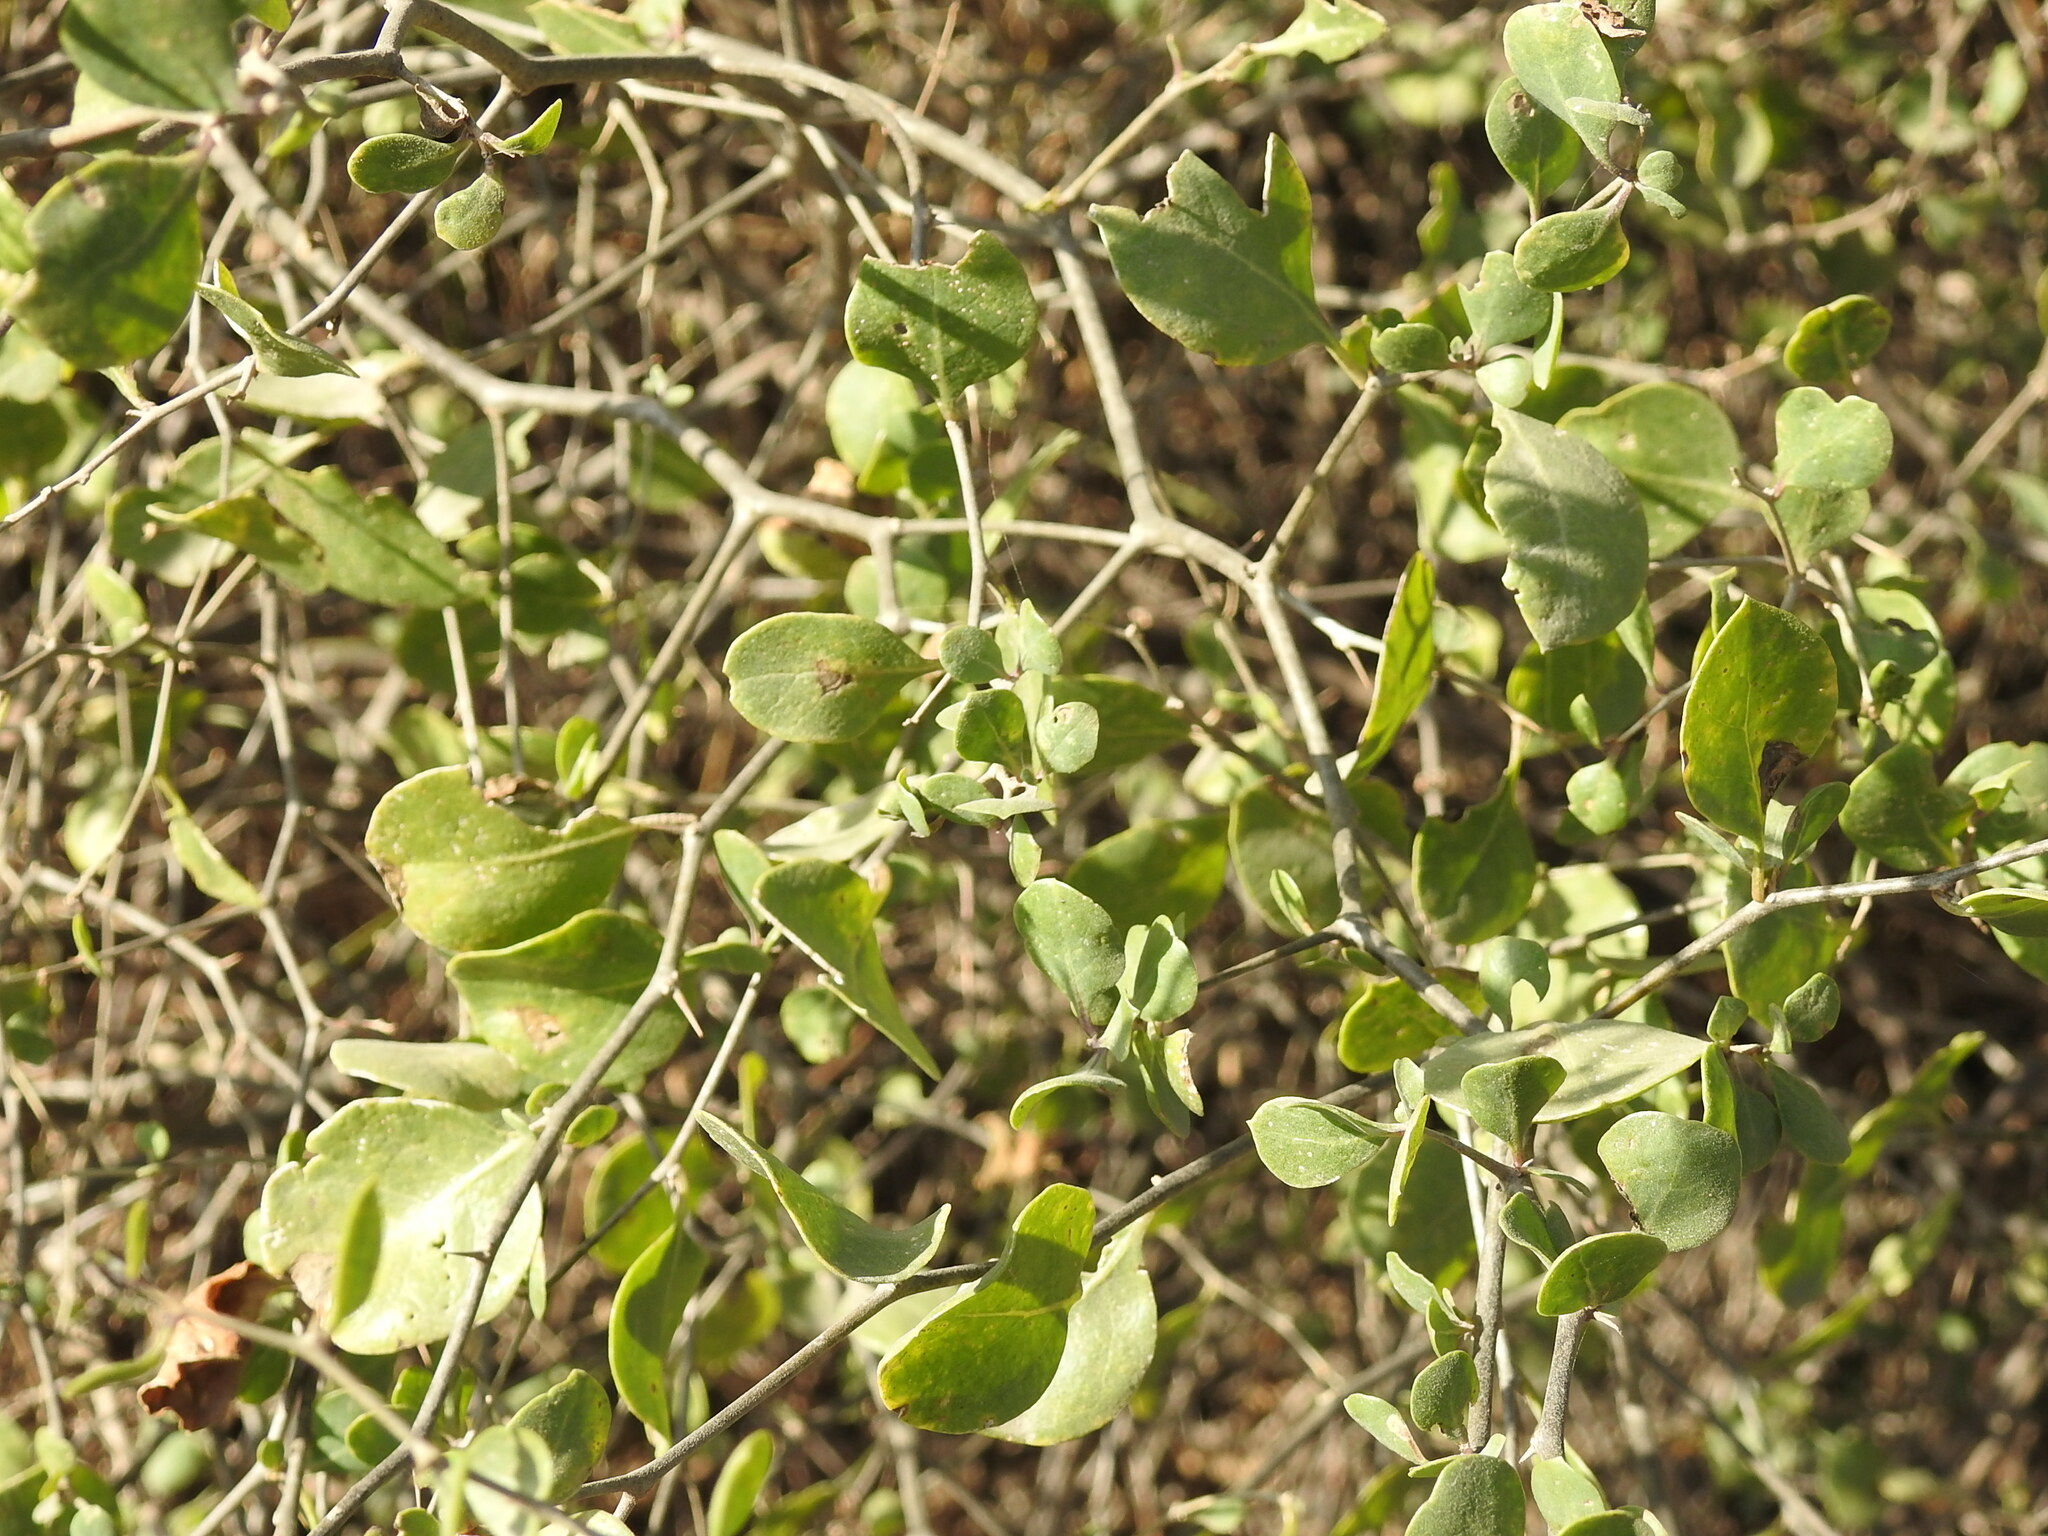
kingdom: Plantae
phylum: Tracheophyta
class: Magnoliopsida
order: Solanales
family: Solanaceae
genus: Lycium
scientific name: Lycium boerhaaviifolium
